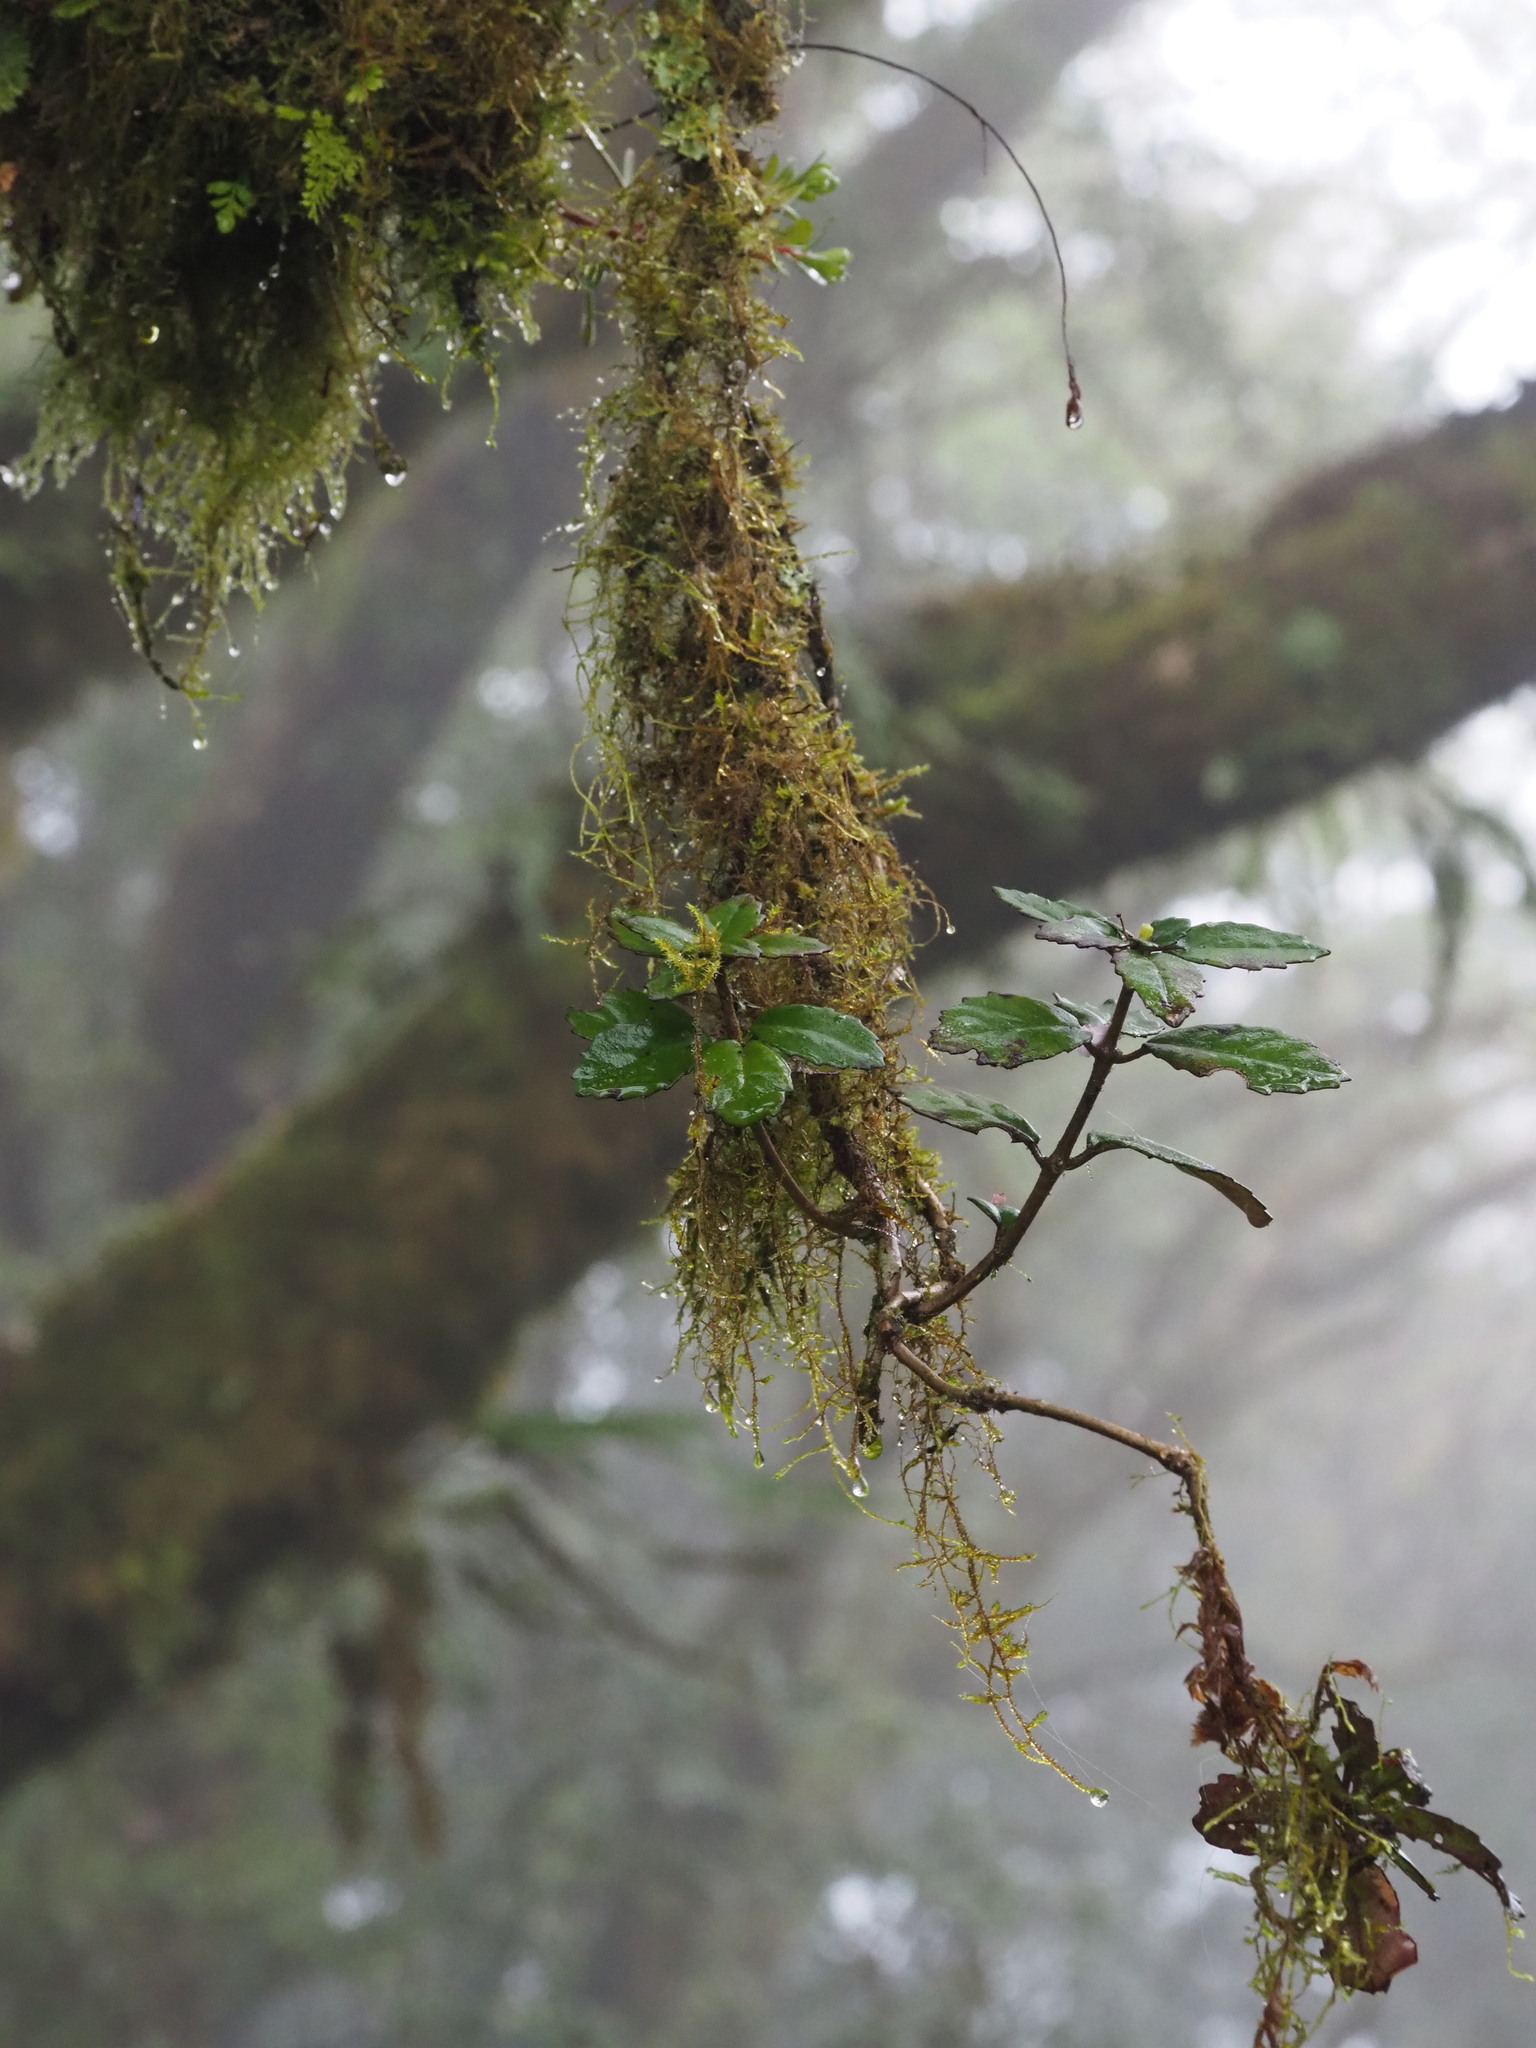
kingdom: Plantae
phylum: Tracheophyta
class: Magnoliopsida
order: Lamiales
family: Gesneriaceae
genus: Lysionotus
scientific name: Lysionotus pauciflorus
